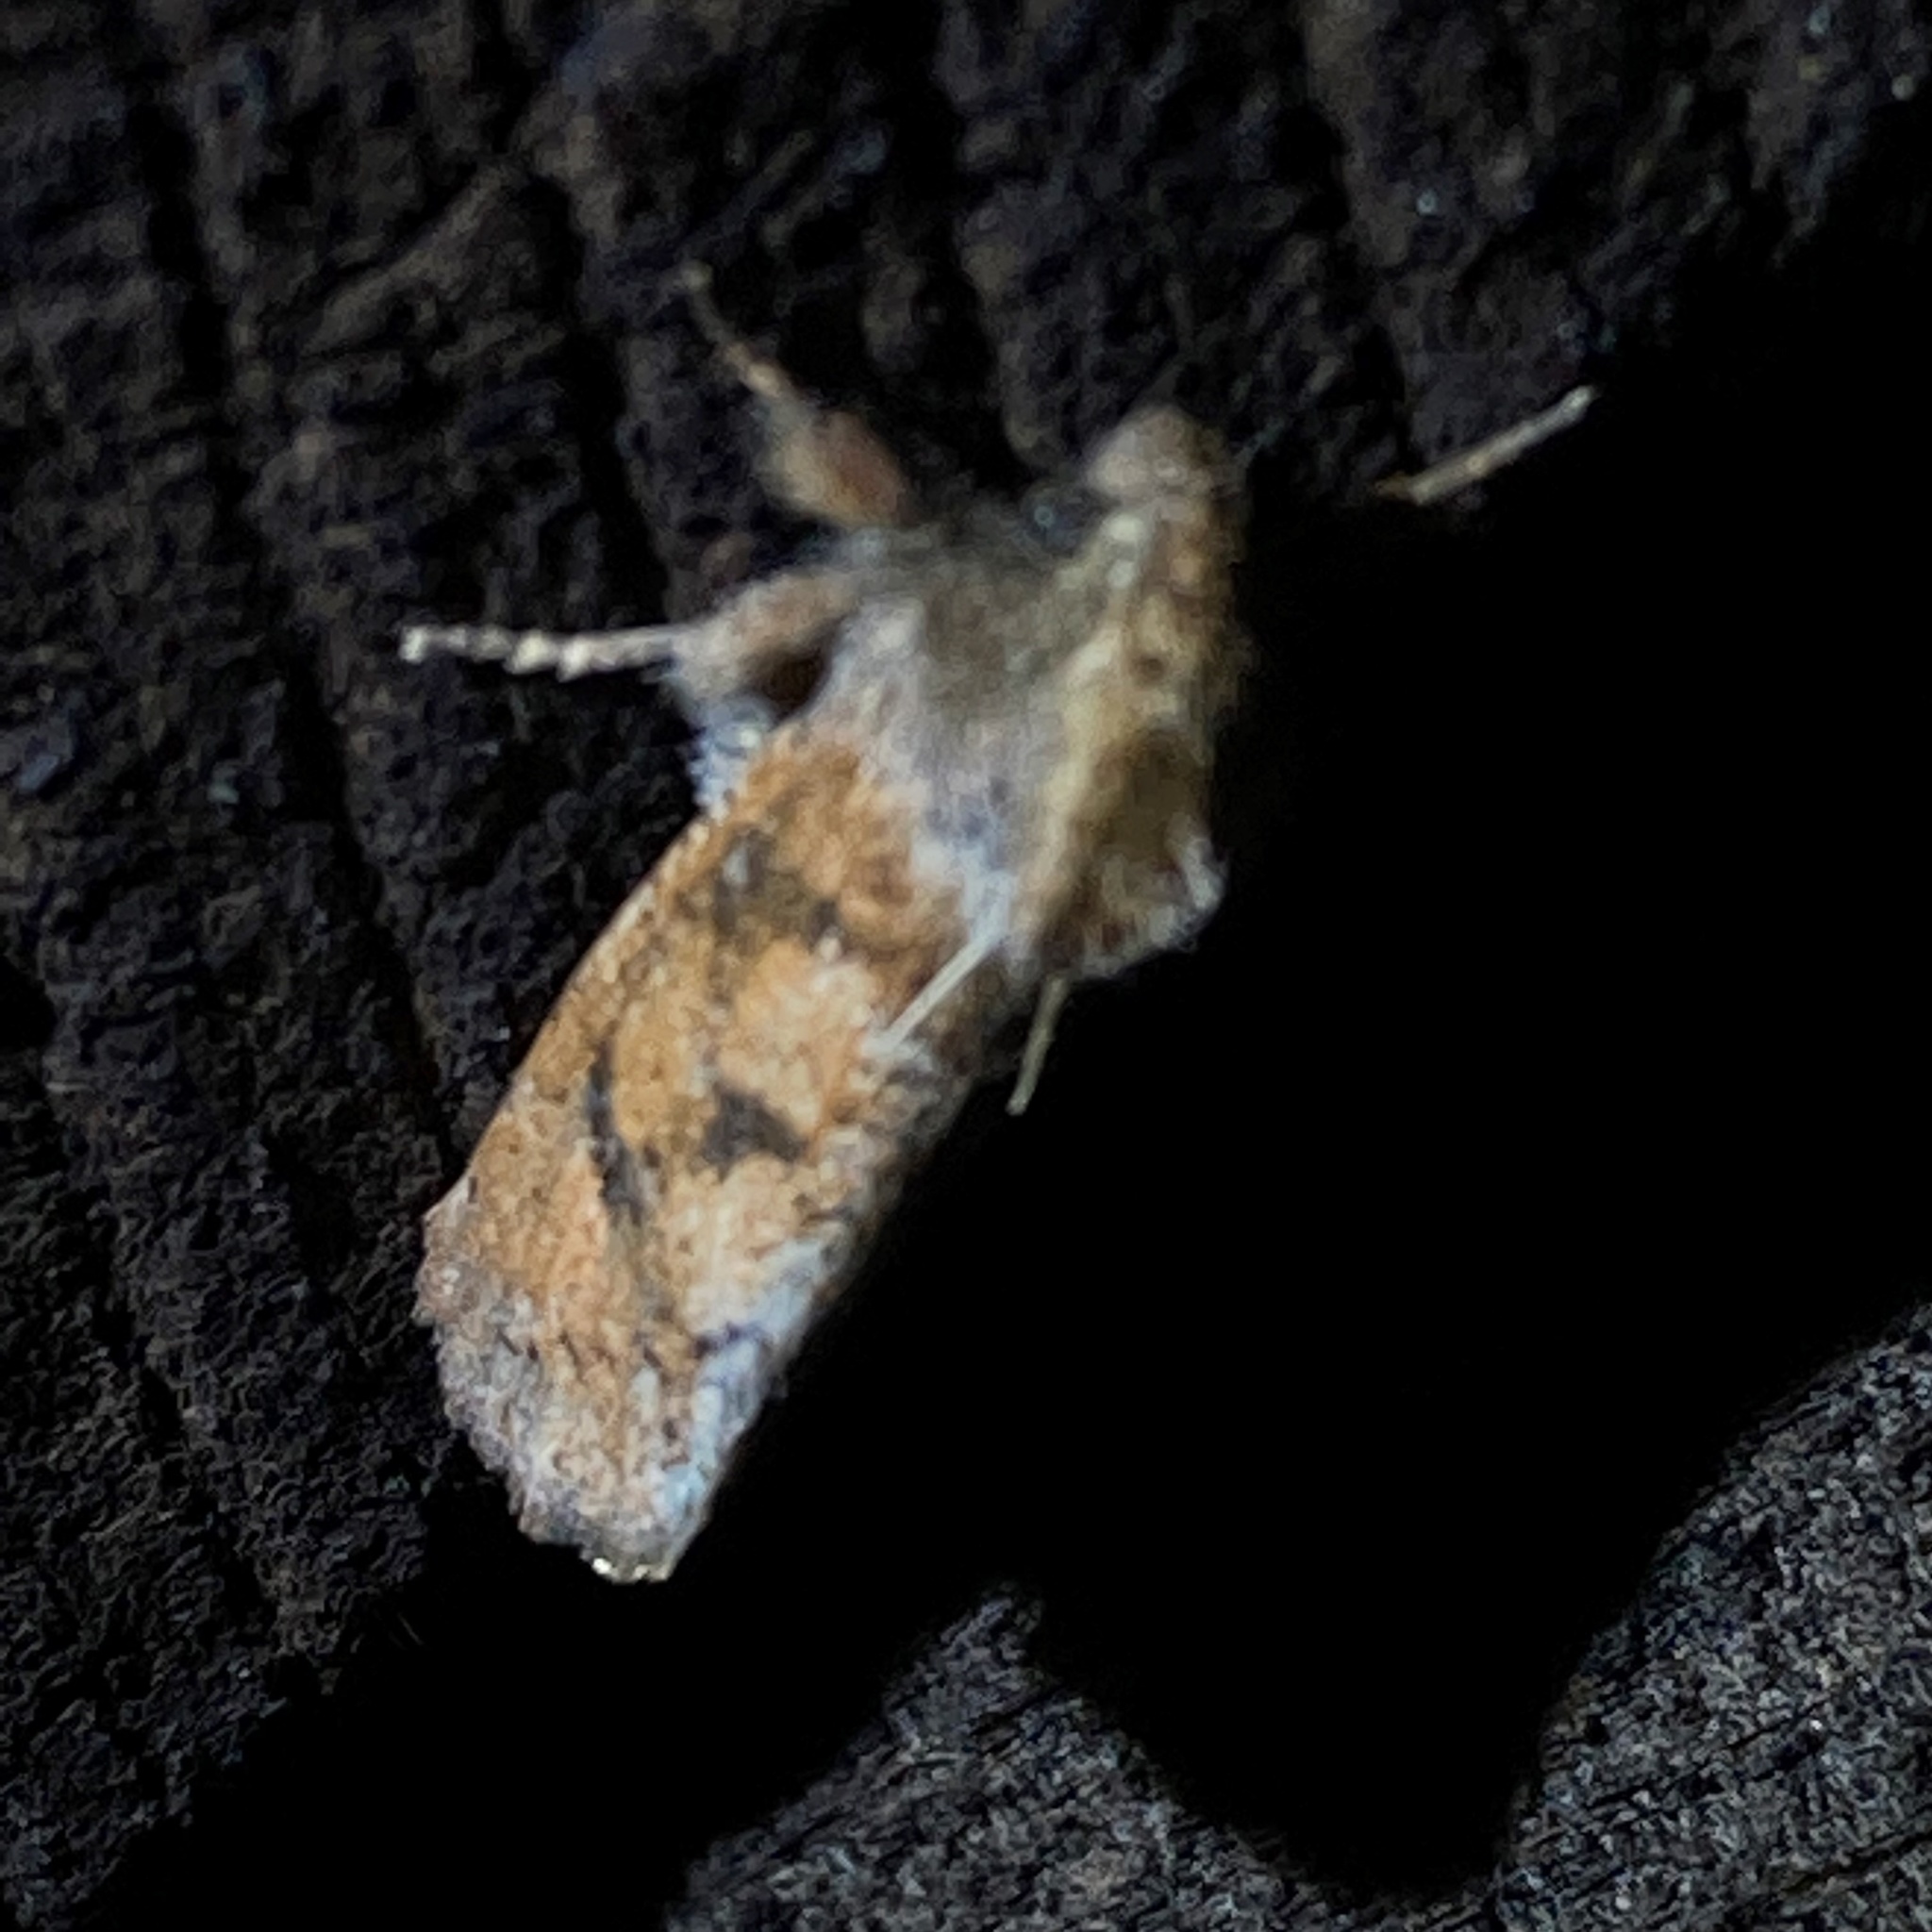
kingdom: Animalia
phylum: Arthropoda
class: Insecta
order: Lepidoptera
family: Tineidae
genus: Acrolophus
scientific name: Acrolophus plumifrontella
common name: Eastern grass tubeworm moth
